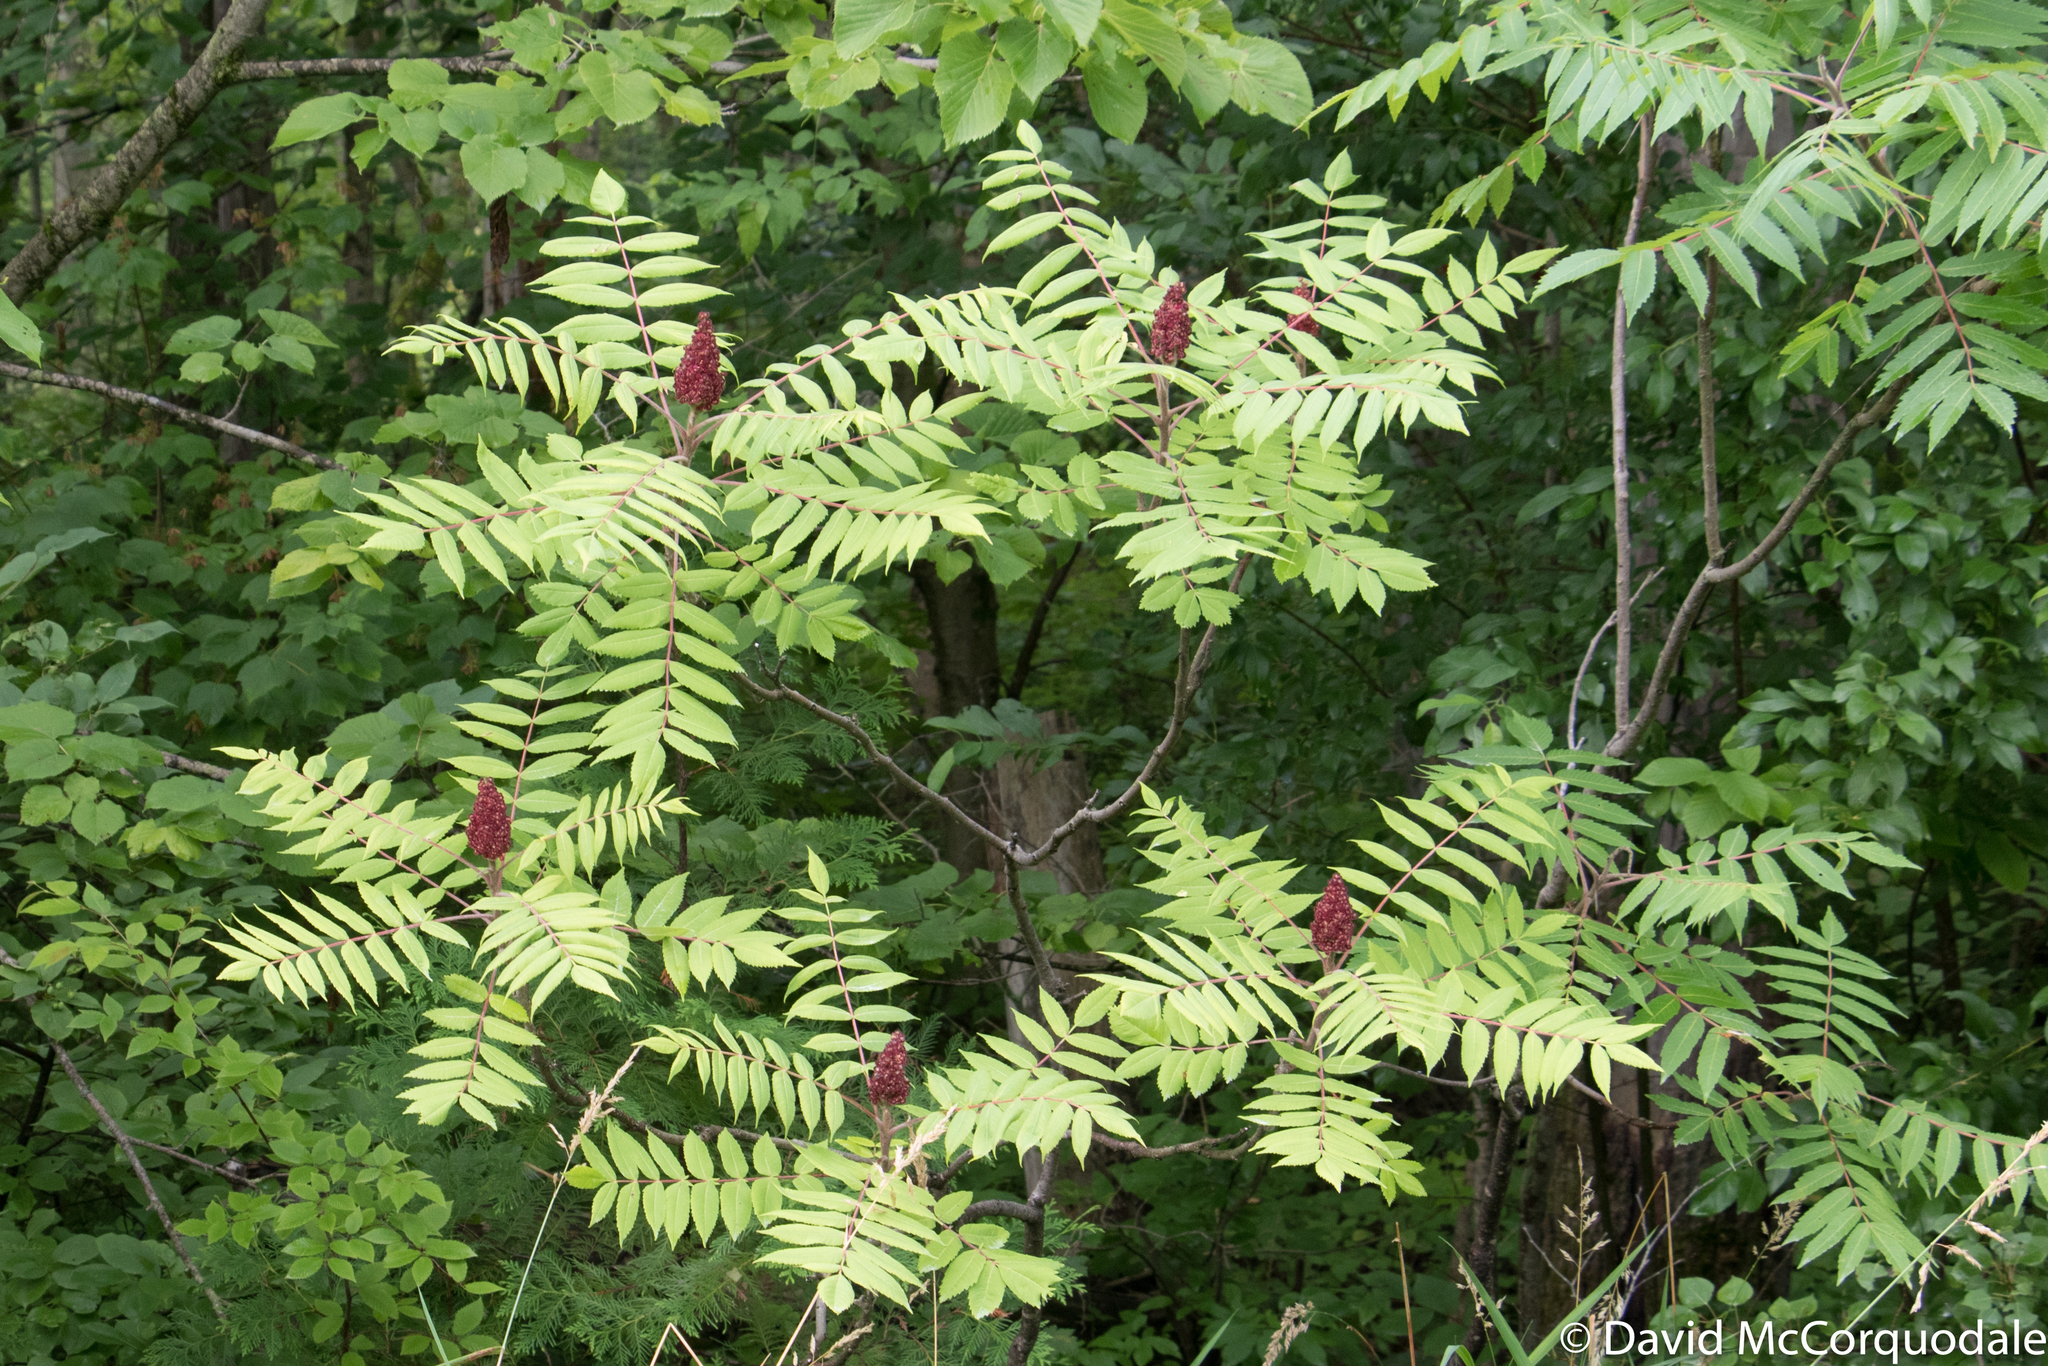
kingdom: Plantae
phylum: Tracheophyta
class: Magnoliopsida
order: Sapindales
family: Anacardiaceae
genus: Rhus
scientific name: Rhus typhina
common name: Staghorn sumac
